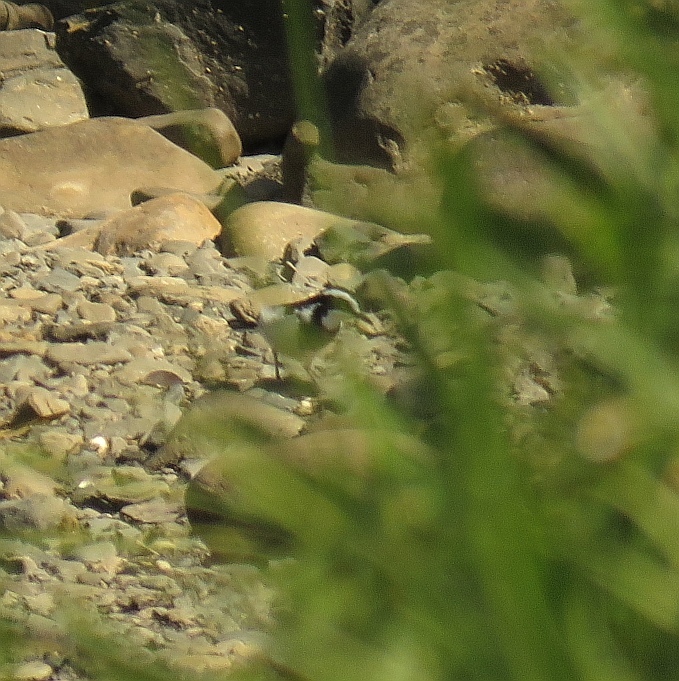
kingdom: Animalia
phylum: Chordata
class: Aves
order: Passeriformes
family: Motacillidae
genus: Motacilla
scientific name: Motacilla aguimp
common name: African pied wagtail
